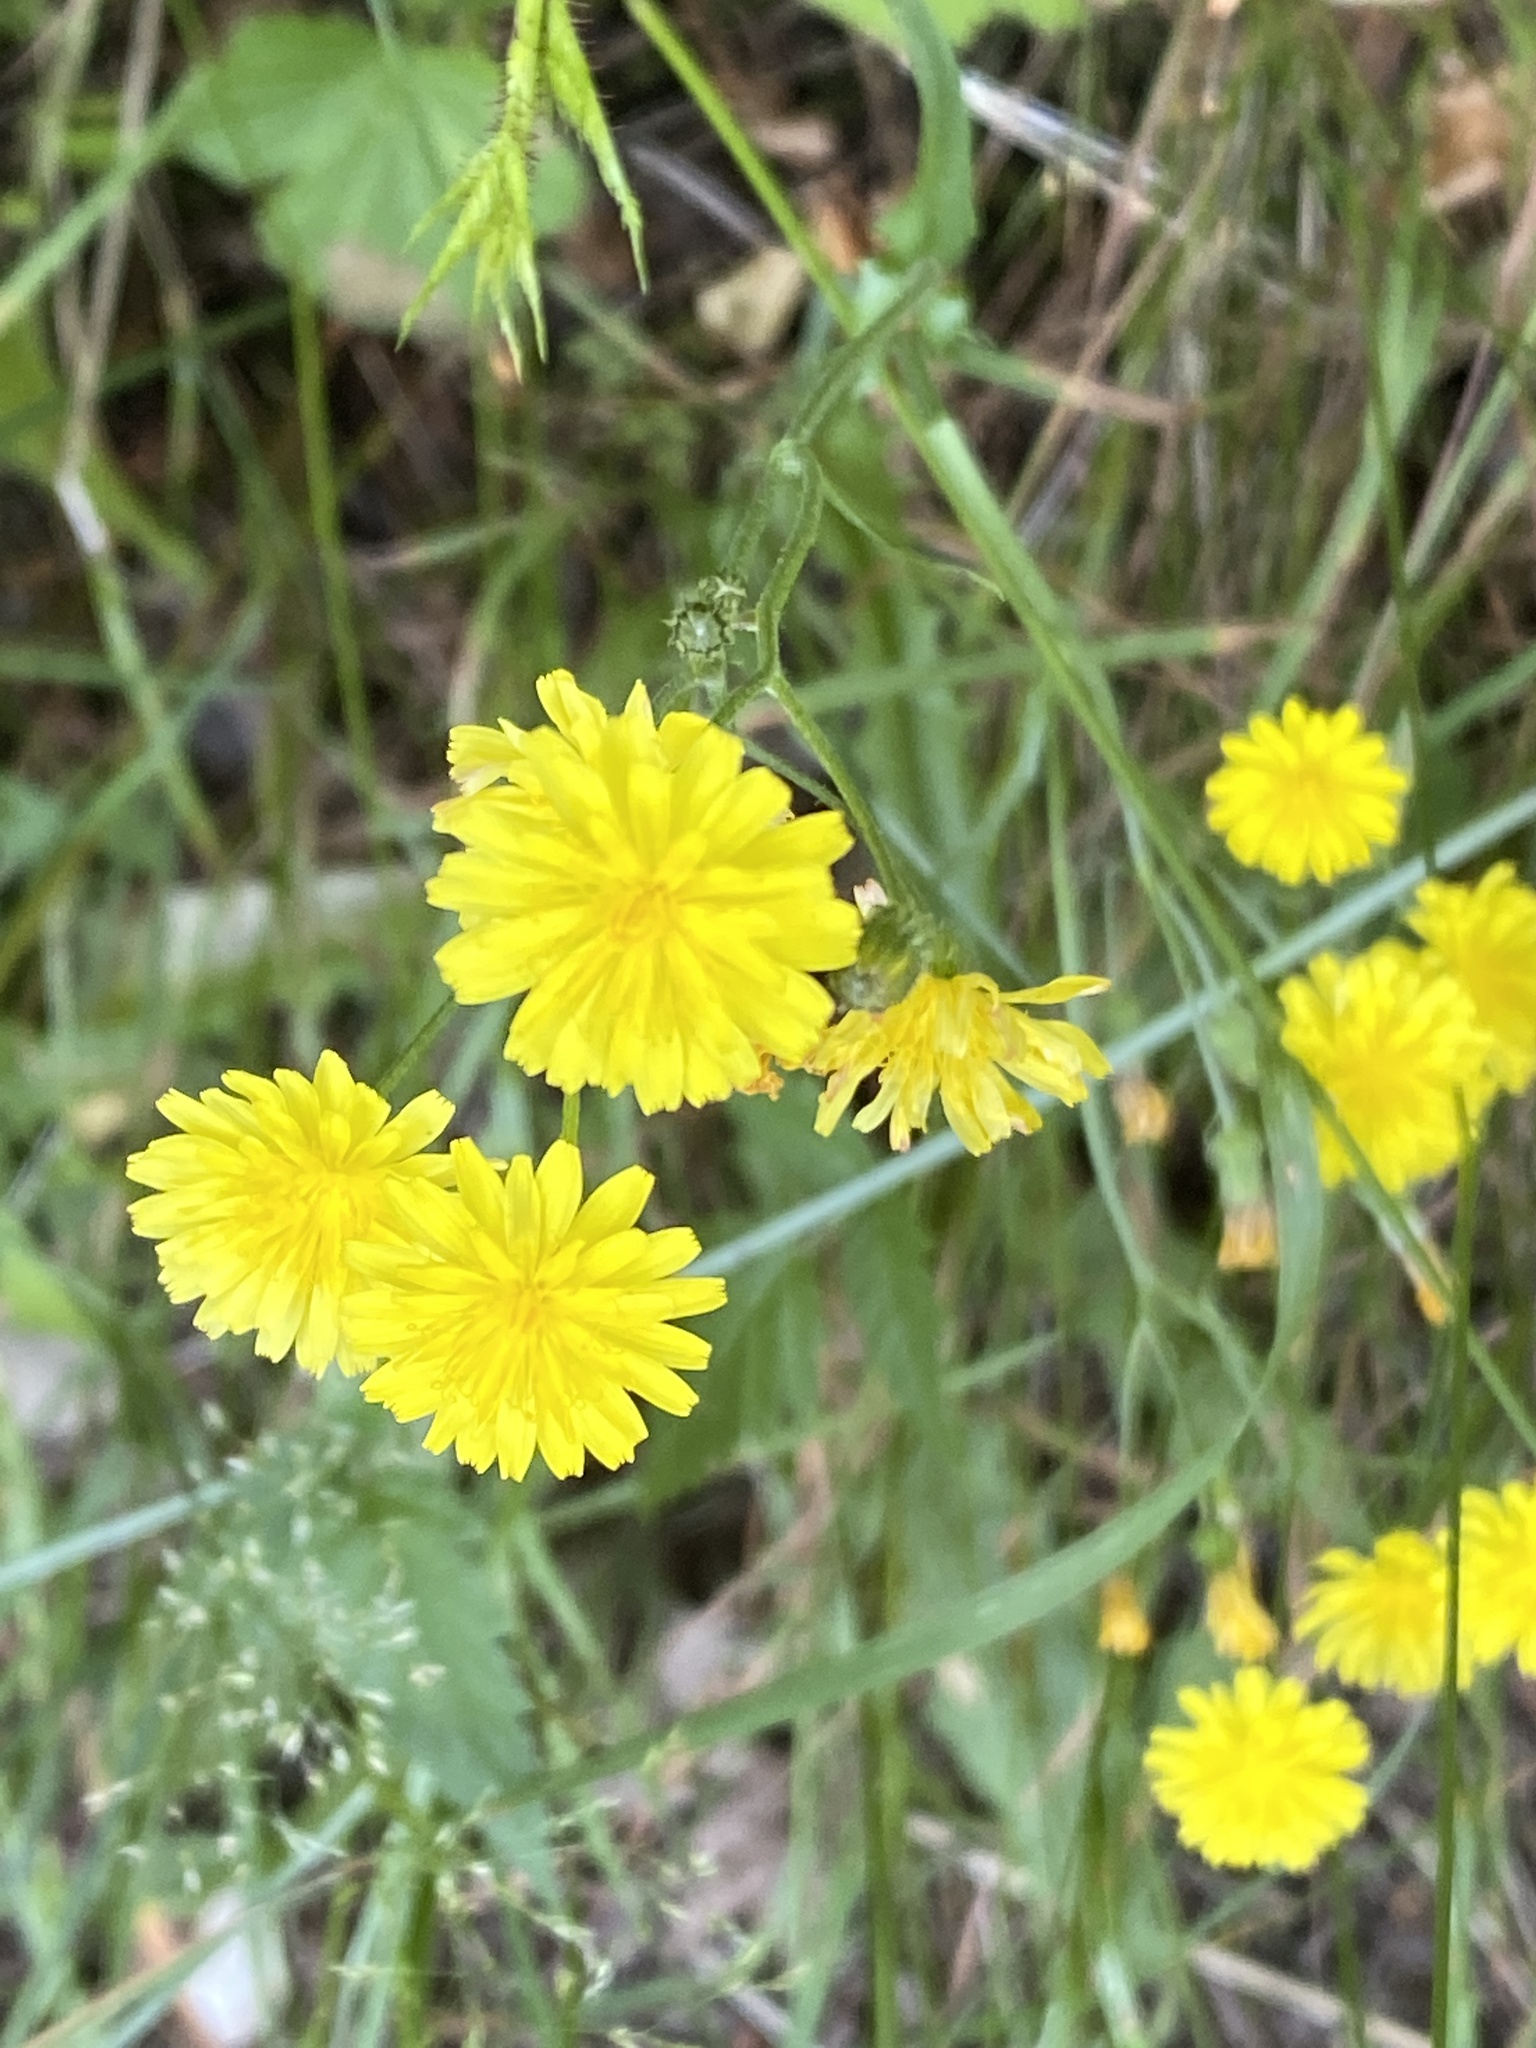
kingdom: Plantae
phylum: Tracheophyta
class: Magnoliopsida
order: Asterales
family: Asteraceae
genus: Crepis
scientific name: Crepis capillaris
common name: Smooth hawksbeard
